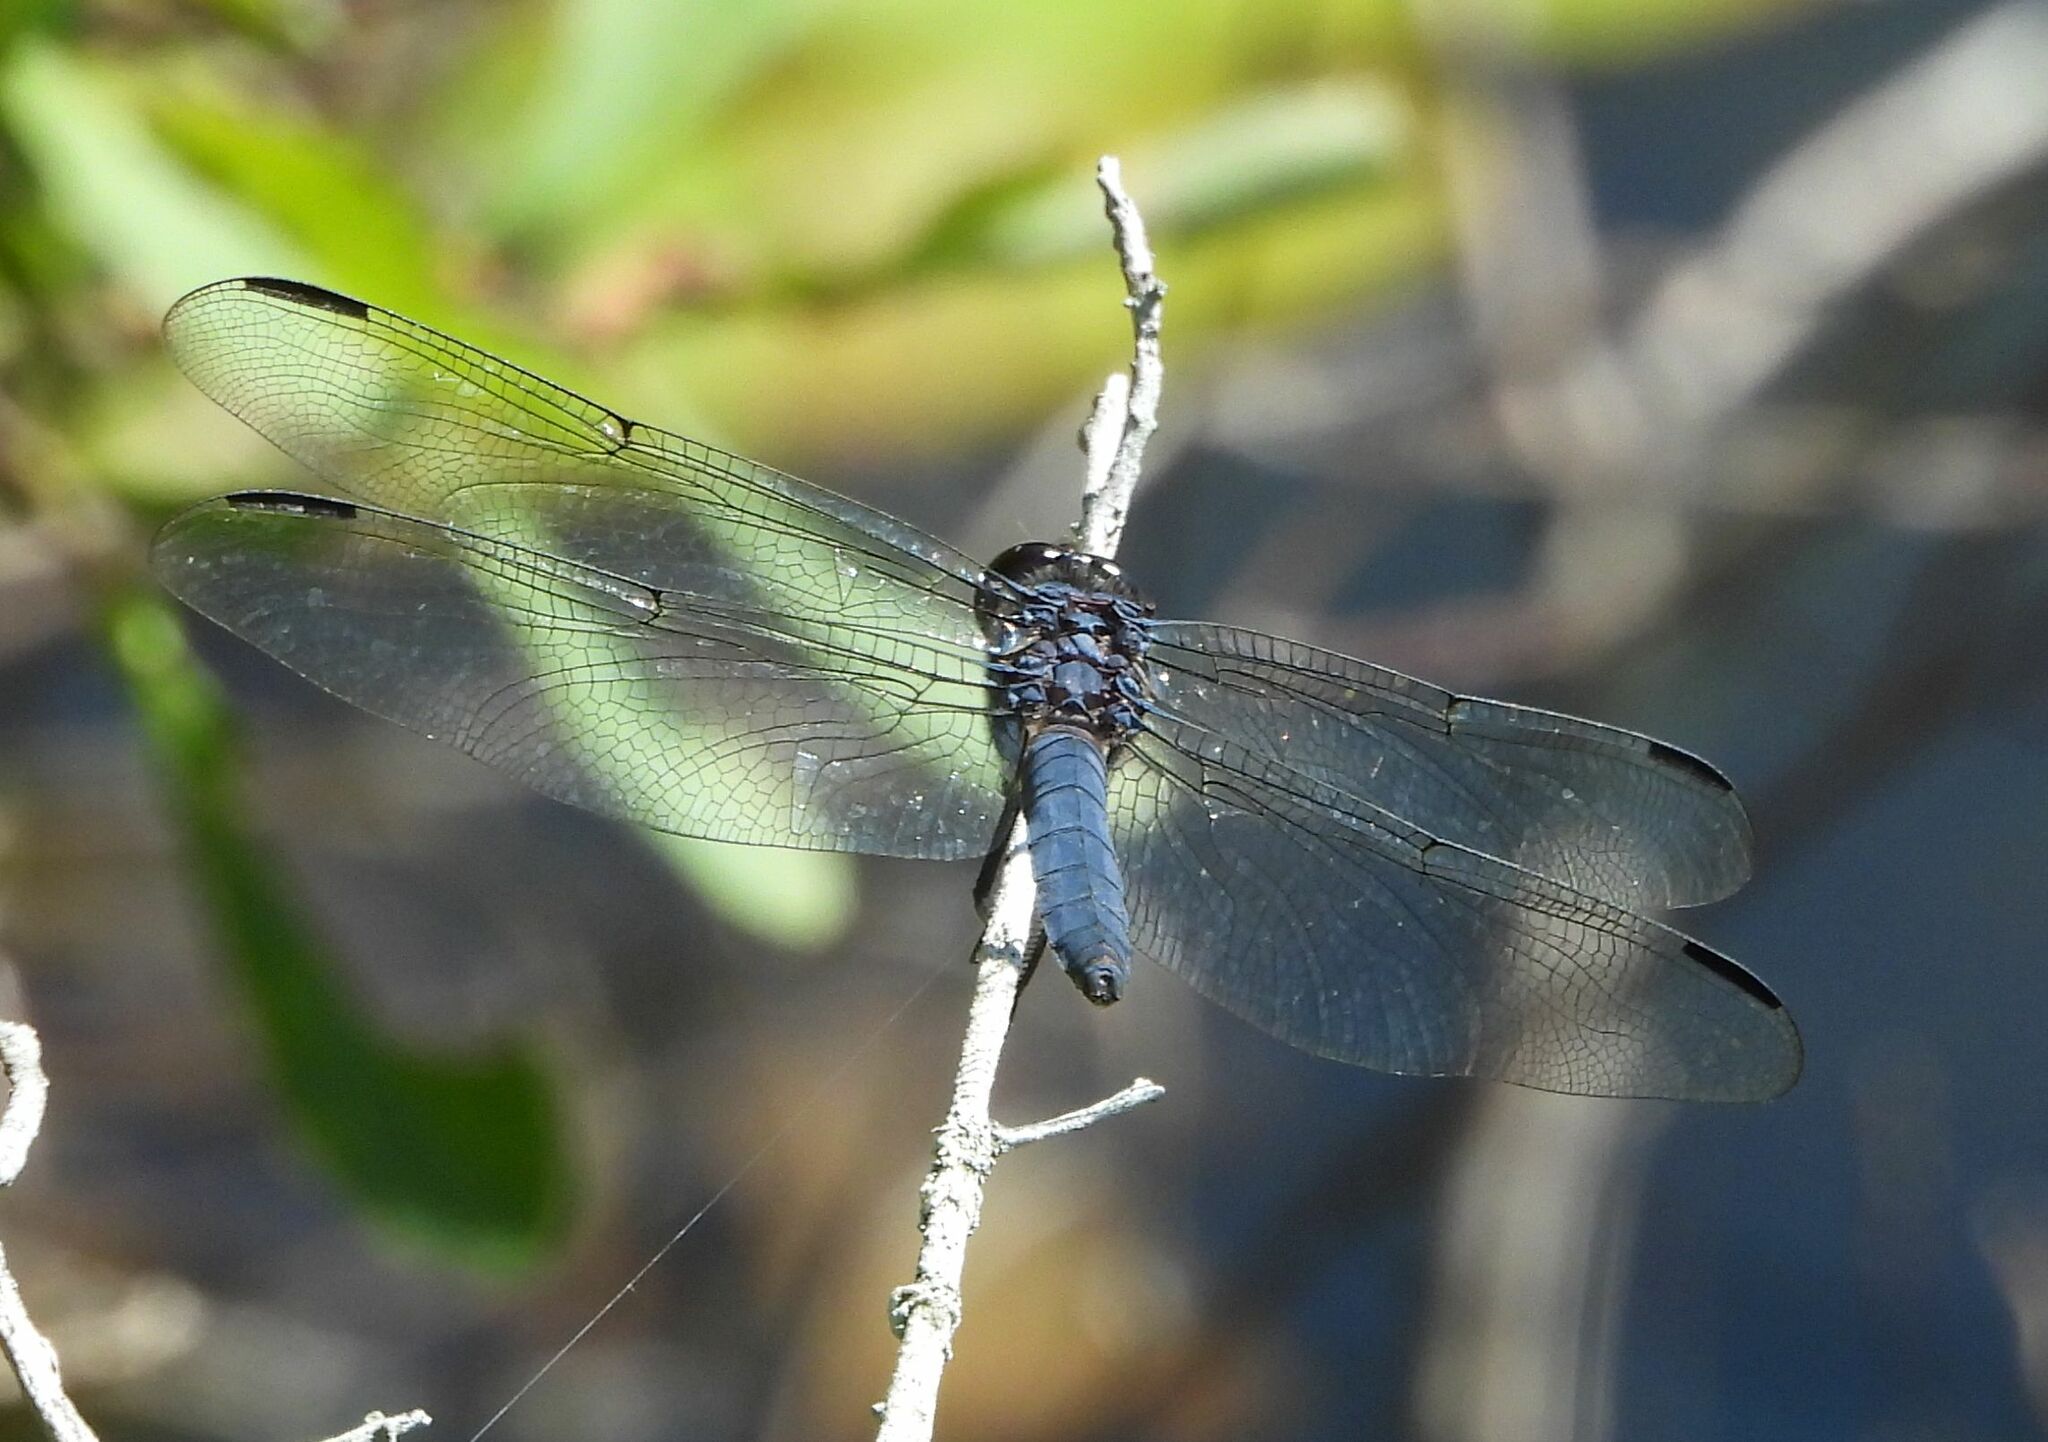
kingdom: Animalia
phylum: Arthropoda
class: Insecta
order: Odonata
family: Libellulidae
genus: Libellula
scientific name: Libellula incesta
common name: Slaty skimmer
